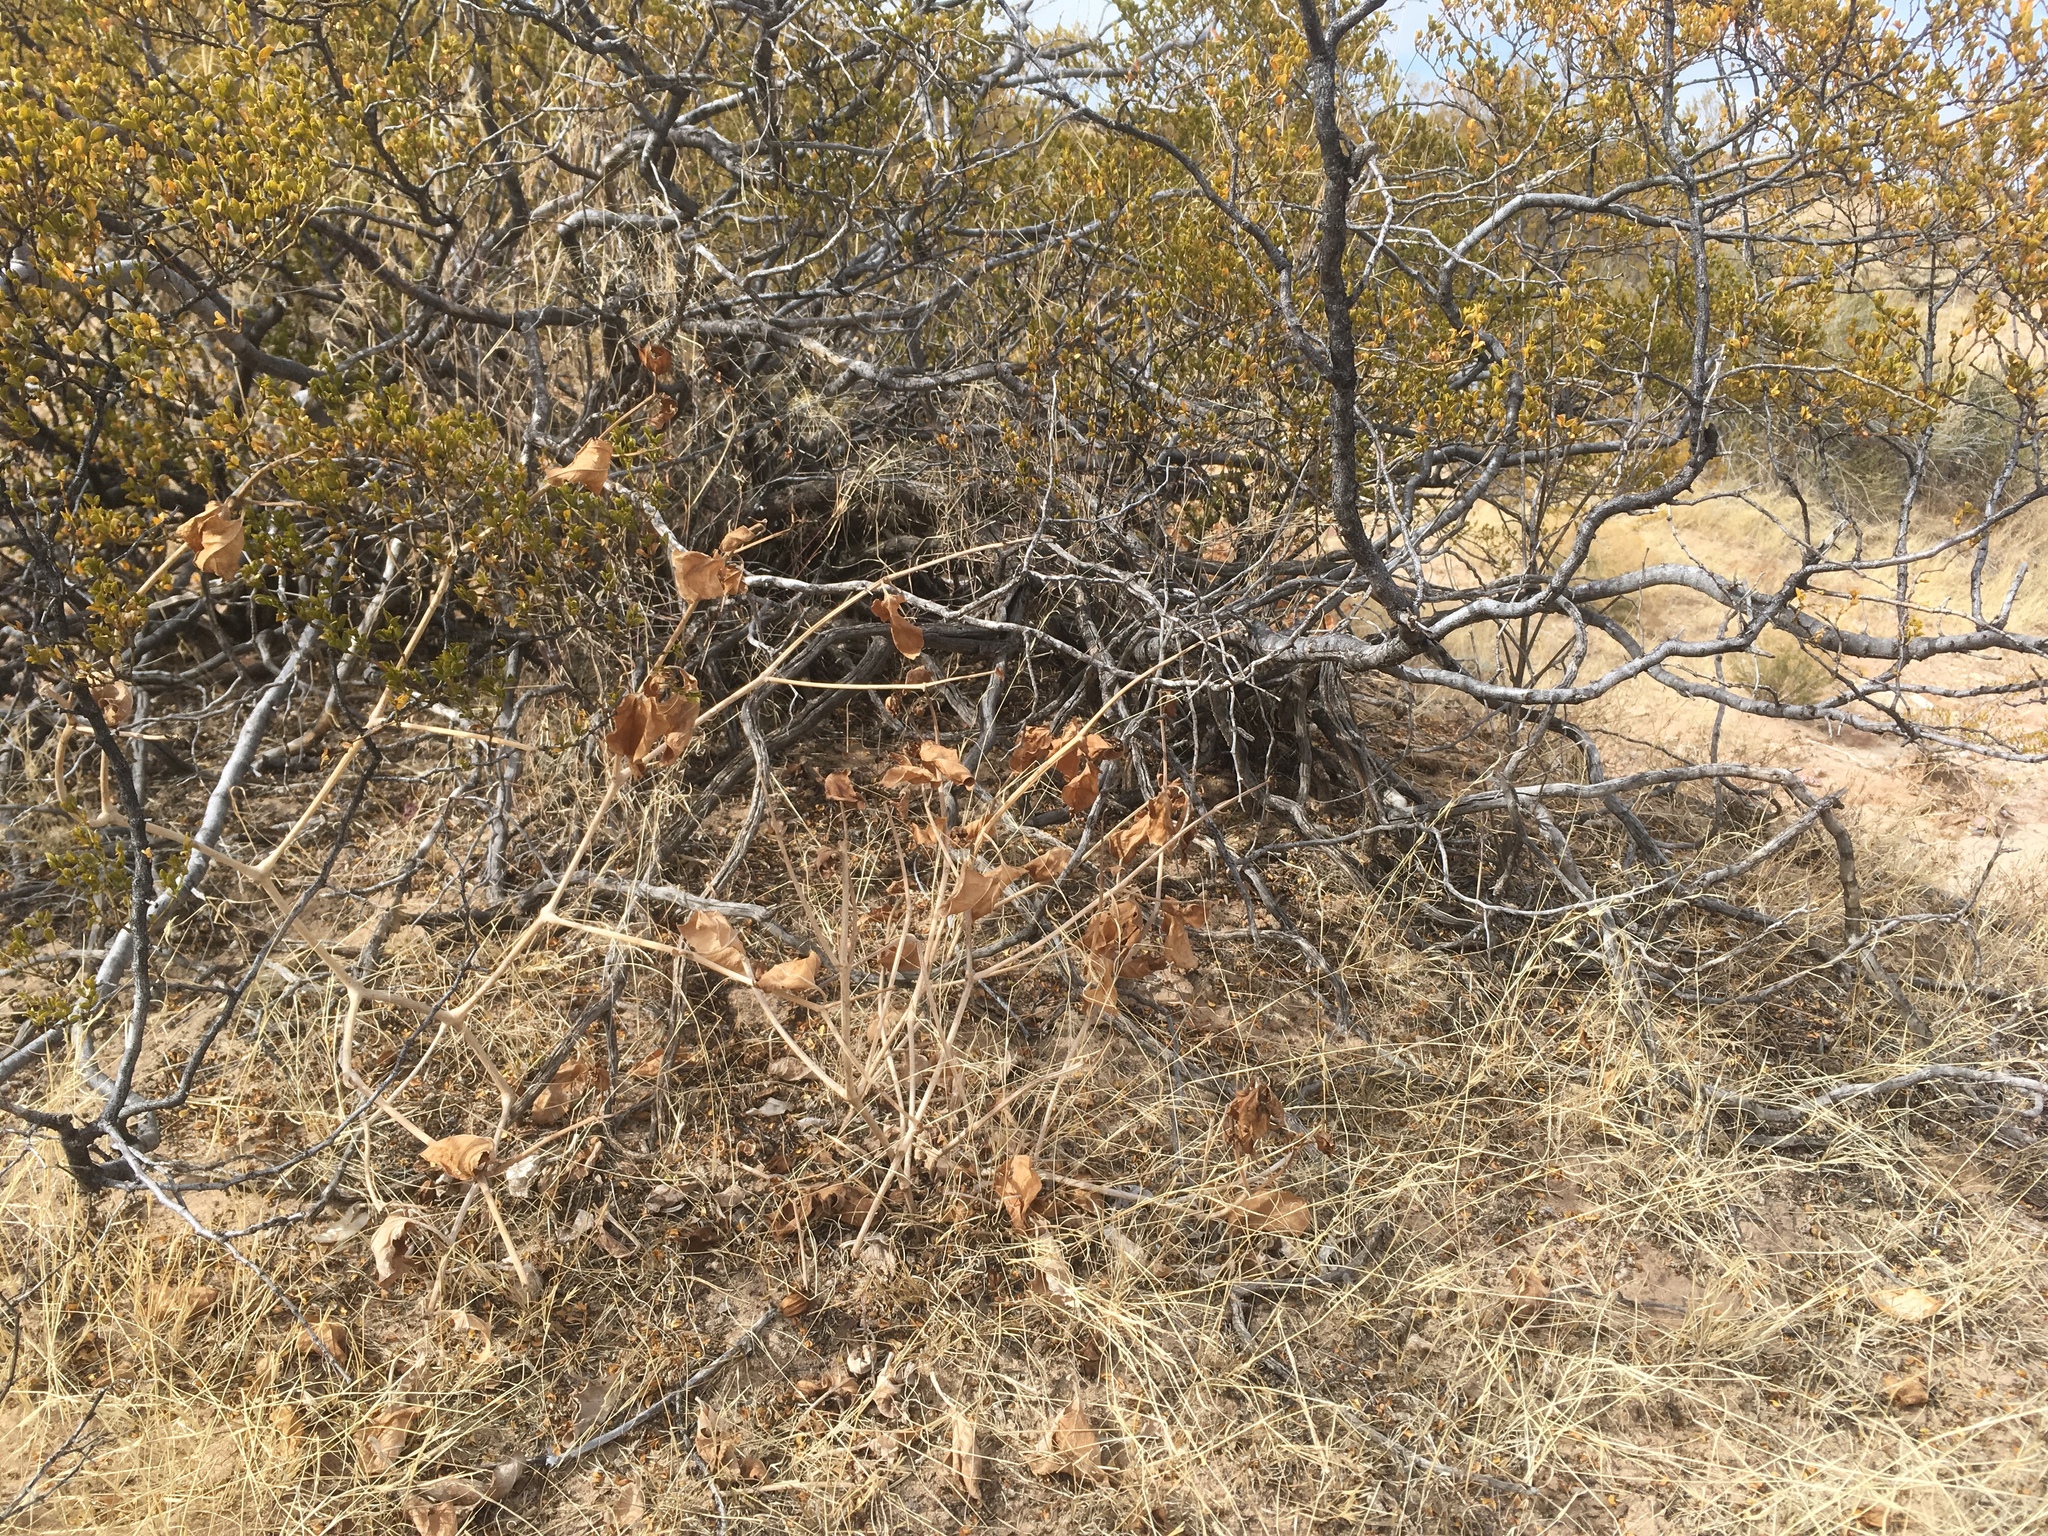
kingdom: Plantae
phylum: Tracheophyta
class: Magnoliopsida
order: Caryophyllales
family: Nyctaginaceae
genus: Mirabilis
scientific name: Mirabilis multiflora
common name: Froebel's four-o'clock
